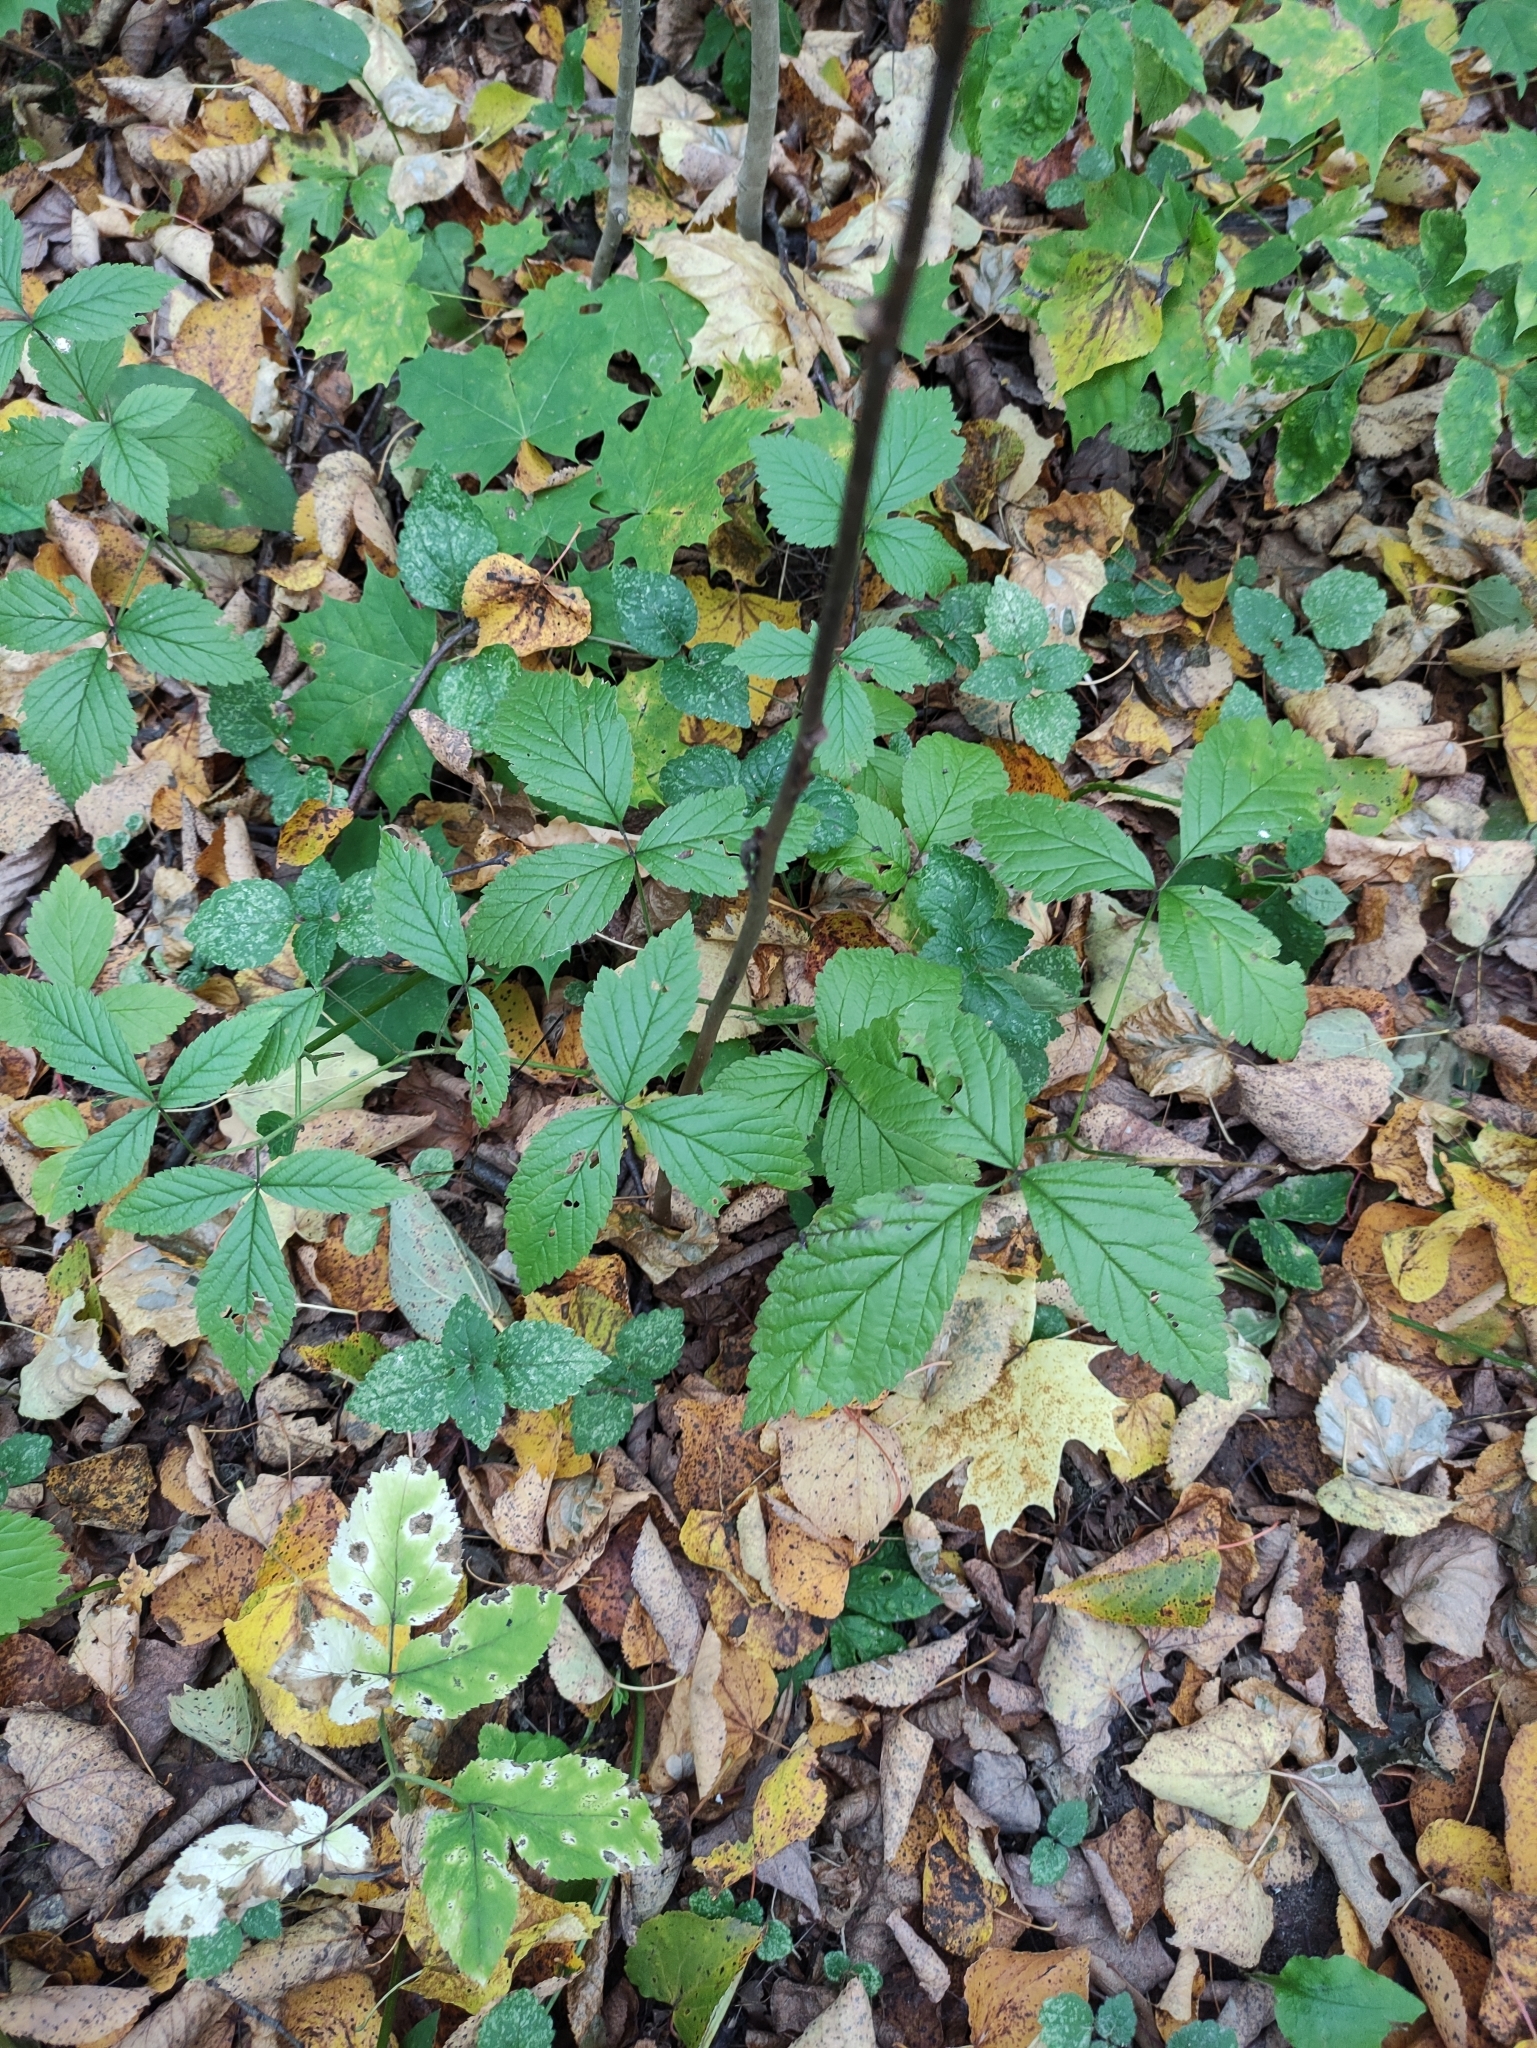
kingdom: Plantae
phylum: Tracheophyta
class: Magnoliopsida
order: Rosales
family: Rosaceae
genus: Rubus
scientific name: Rubus saxatilis
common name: Stone bramble
